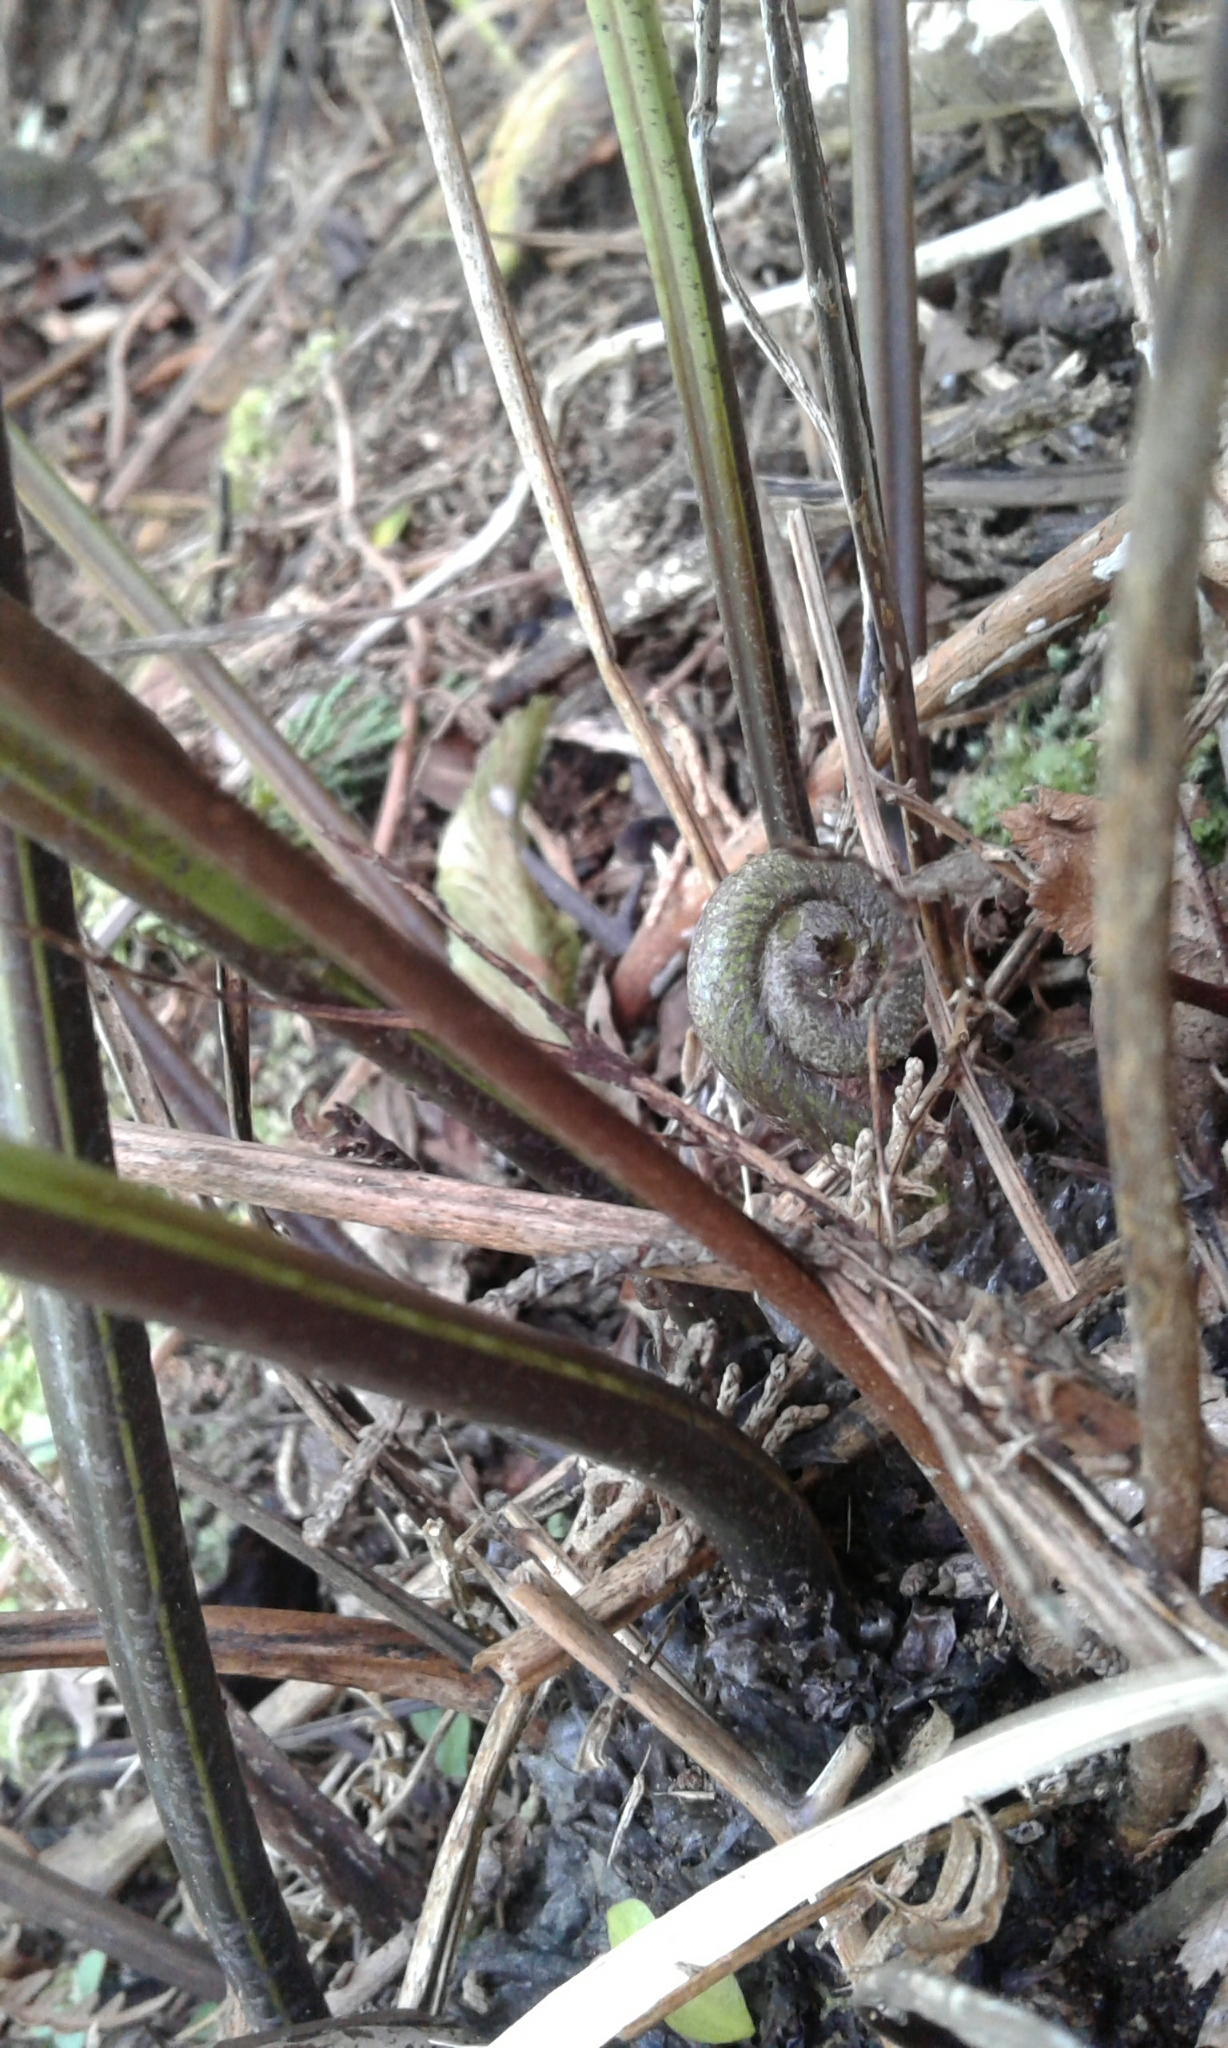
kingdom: Plantae
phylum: Tracheophyta
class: Polypodiopsida
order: Polypodiales
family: Aspleniaceae
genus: Asplenium
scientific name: Asplenium obtusatum
